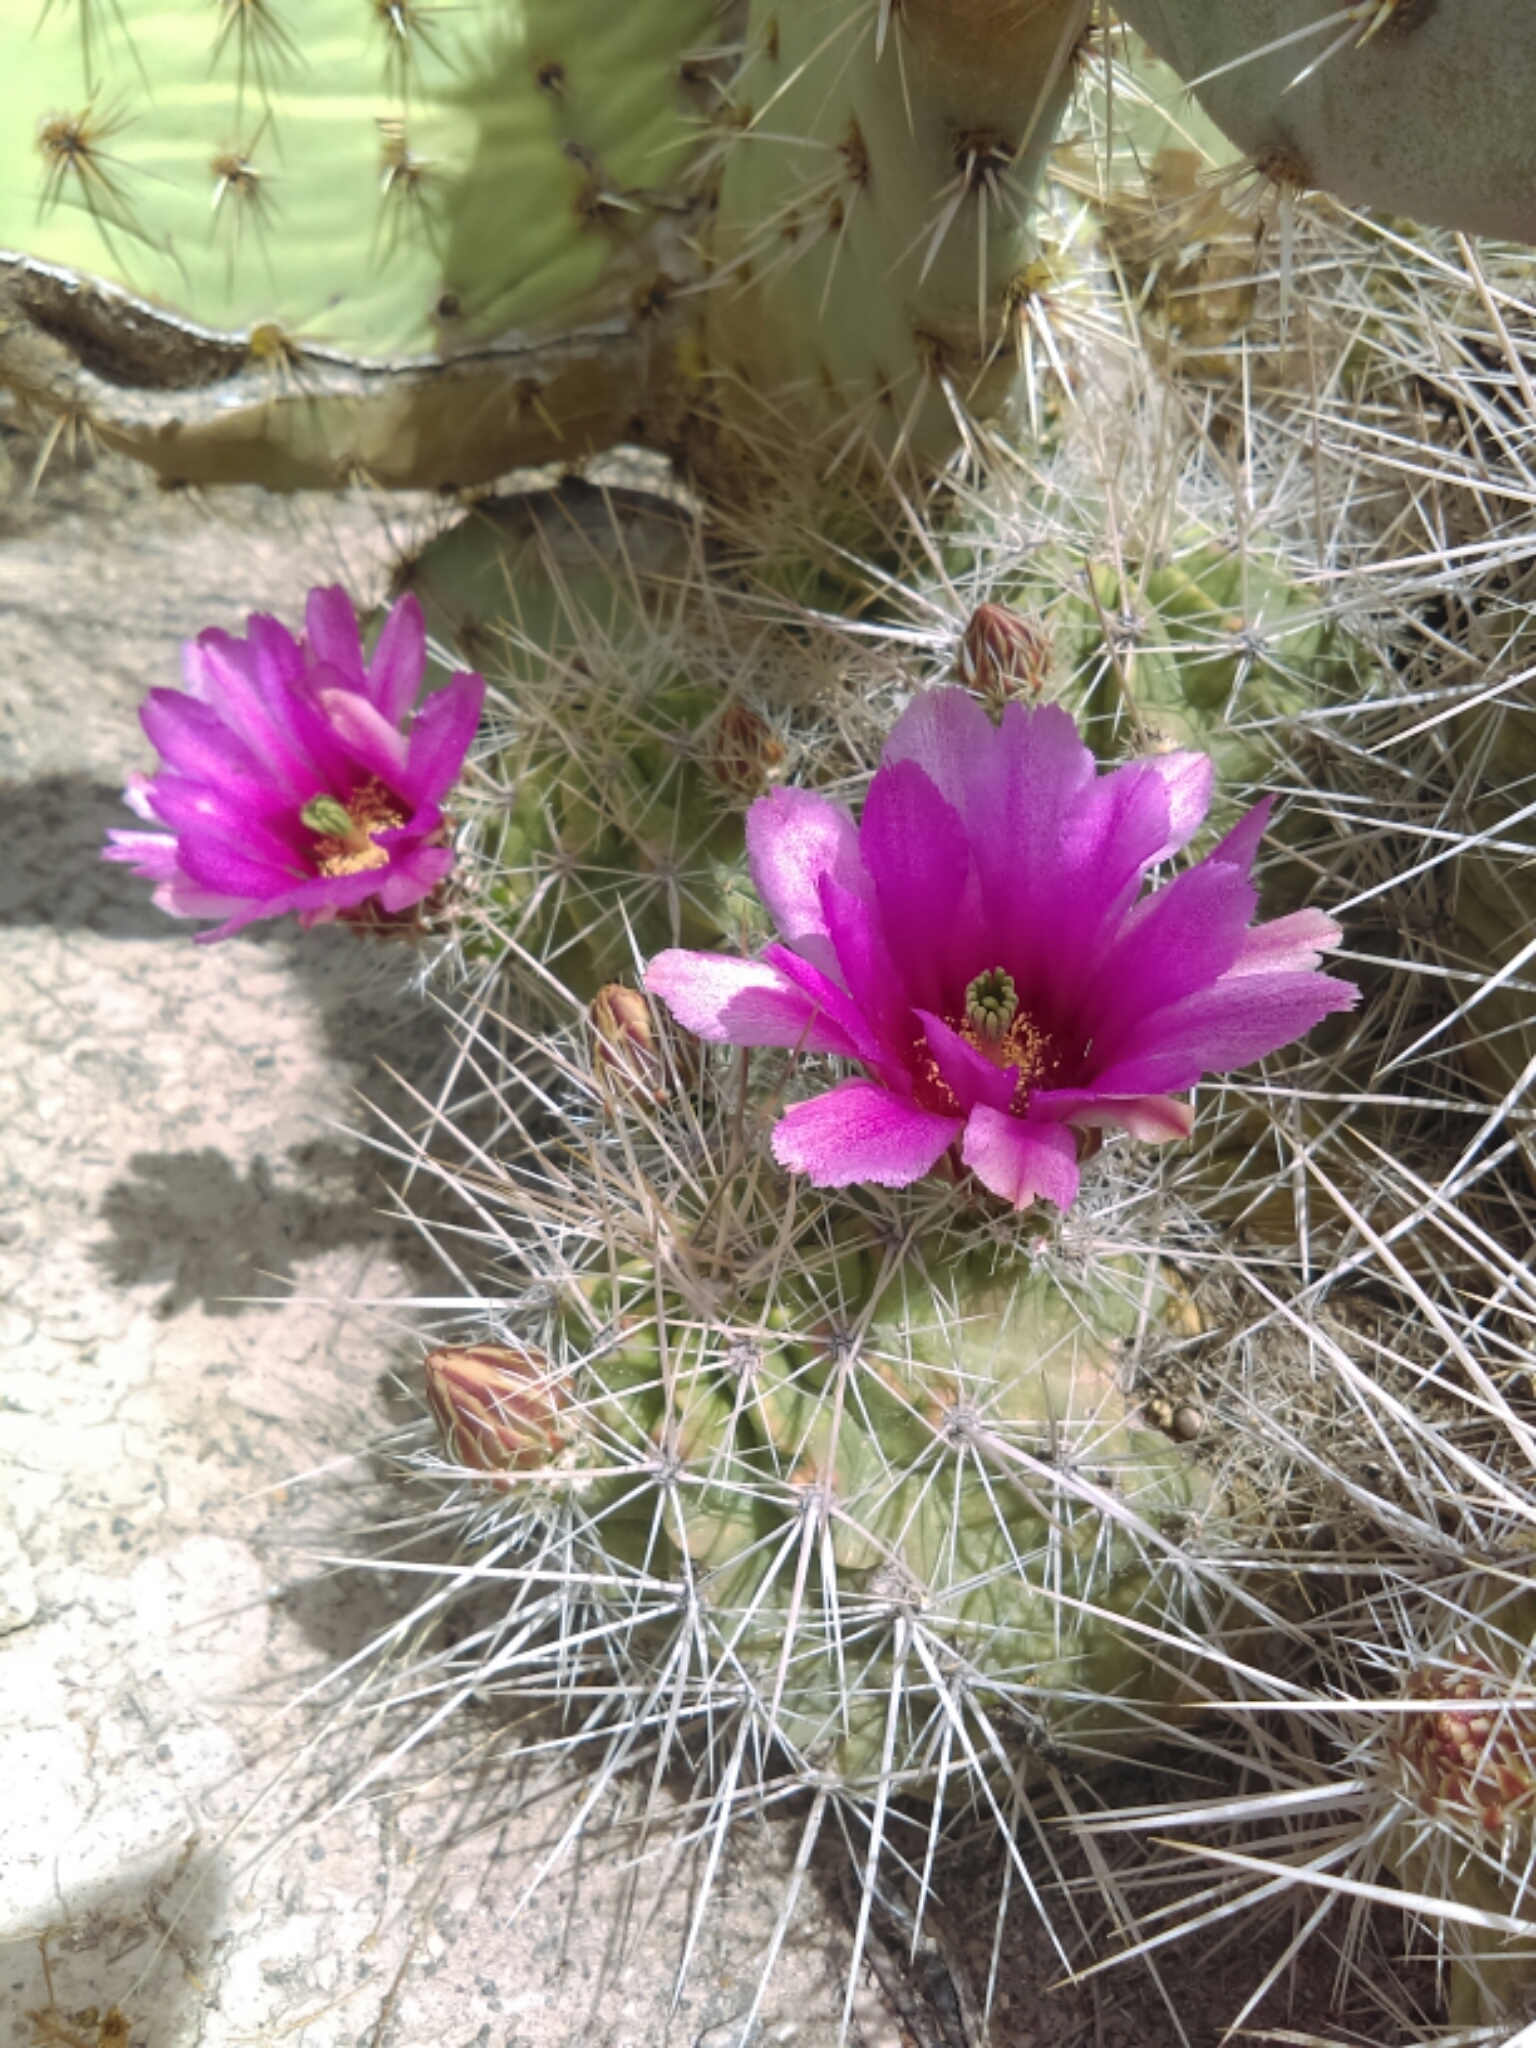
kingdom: Plantae
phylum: Tracheophyta
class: Magnoliopsida
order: Caryophyllales
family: Cactaceae
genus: Echinocereus
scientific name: Echinocereus enneacanthus
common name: Pitaya
